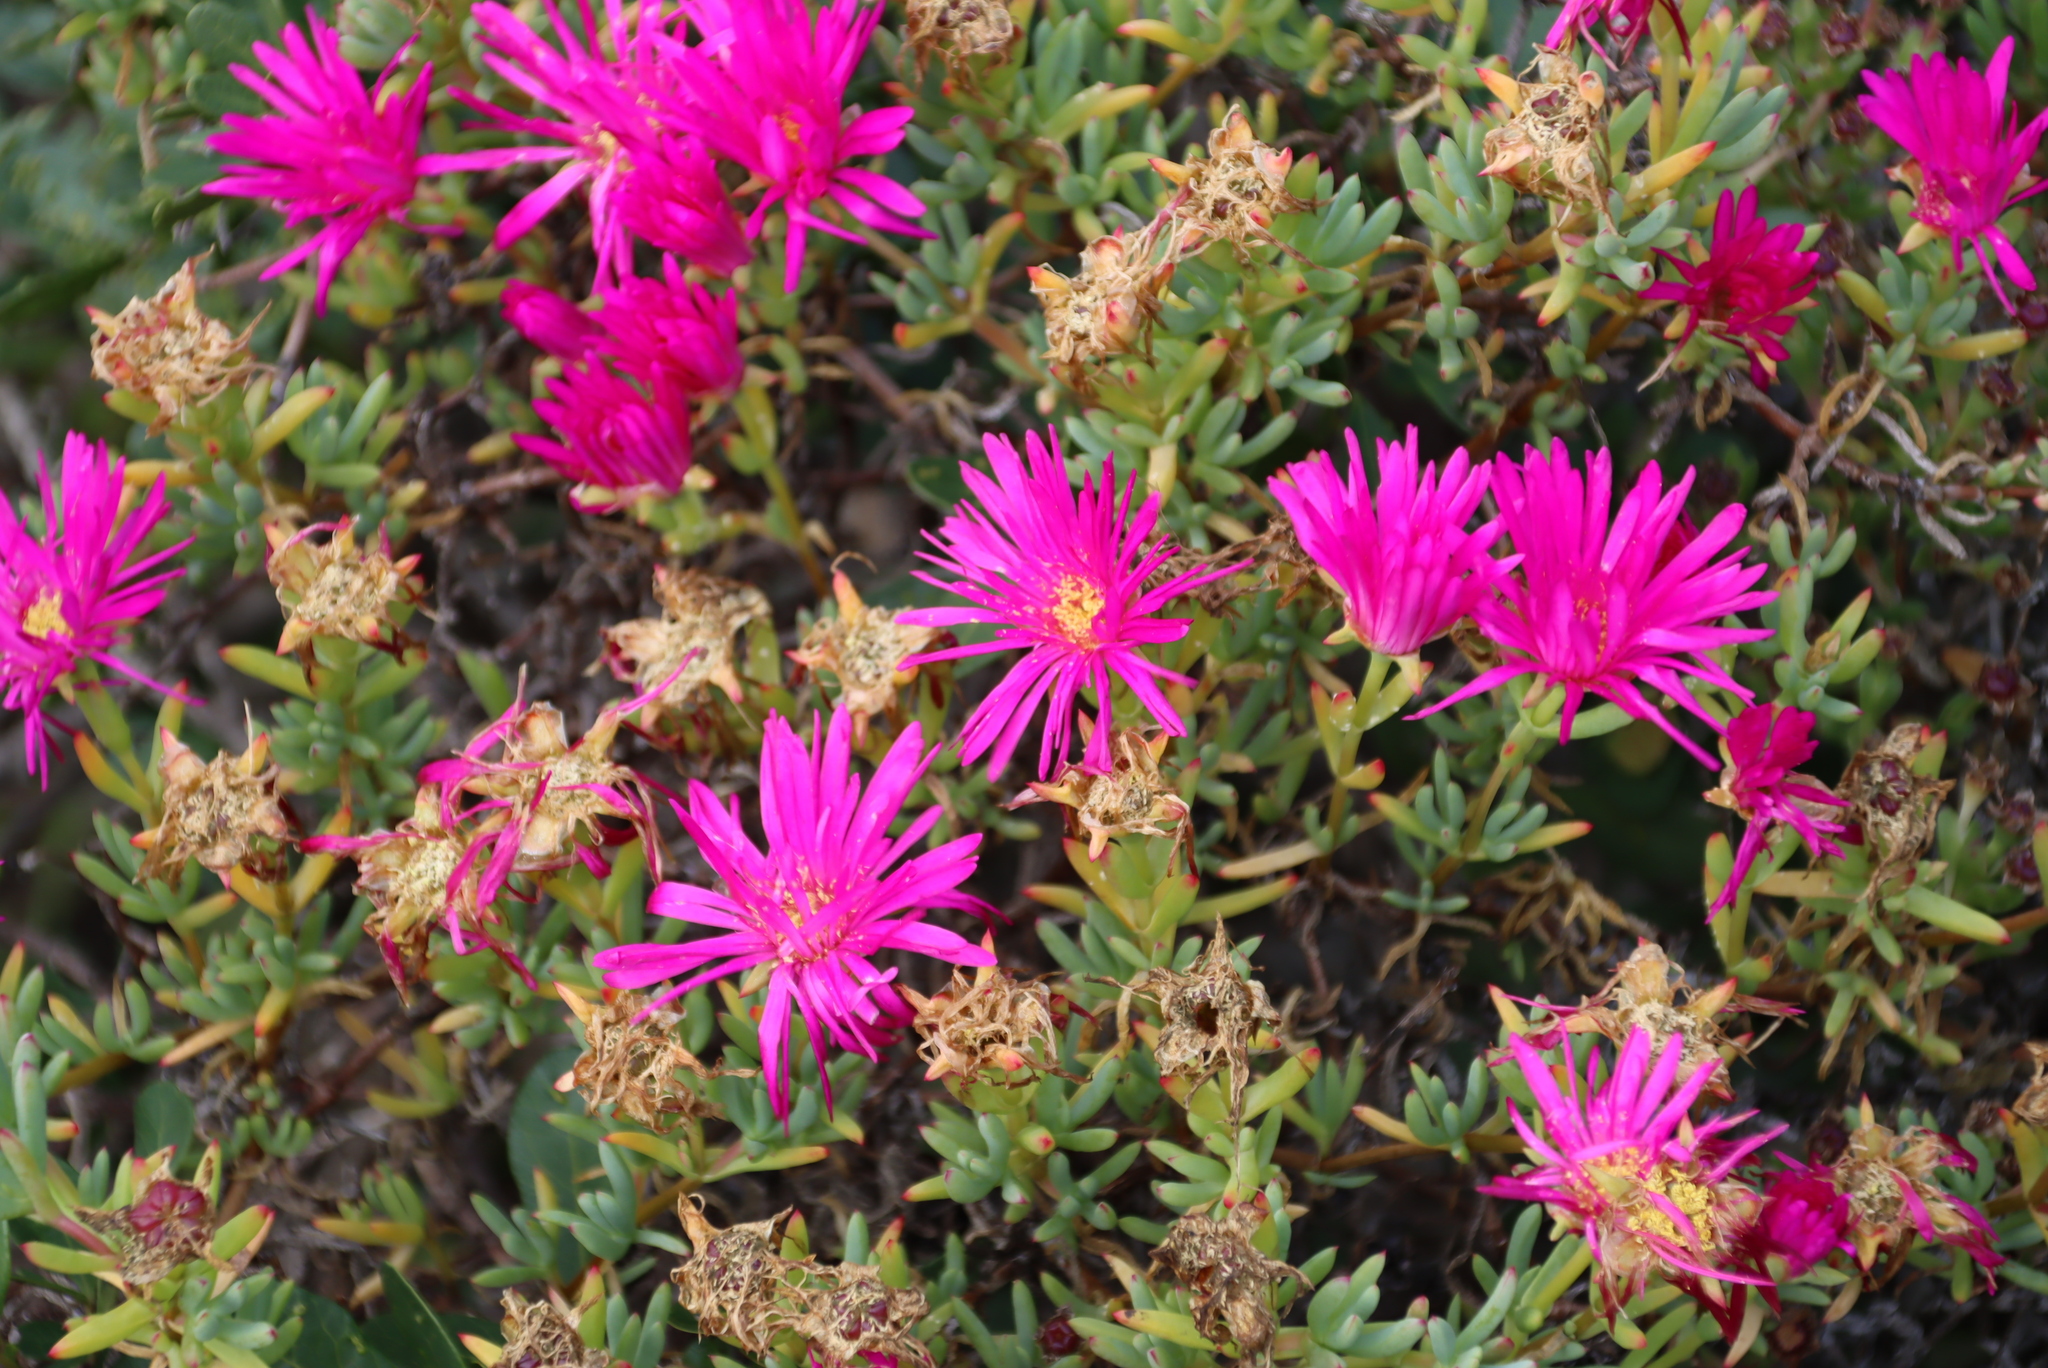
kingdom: Plantae
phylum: Tracheophyta
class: Magnoliopsida
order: Caryophyllales
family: Aizoaceae
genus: Lampranthus
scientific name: Lampranthus vernalis
